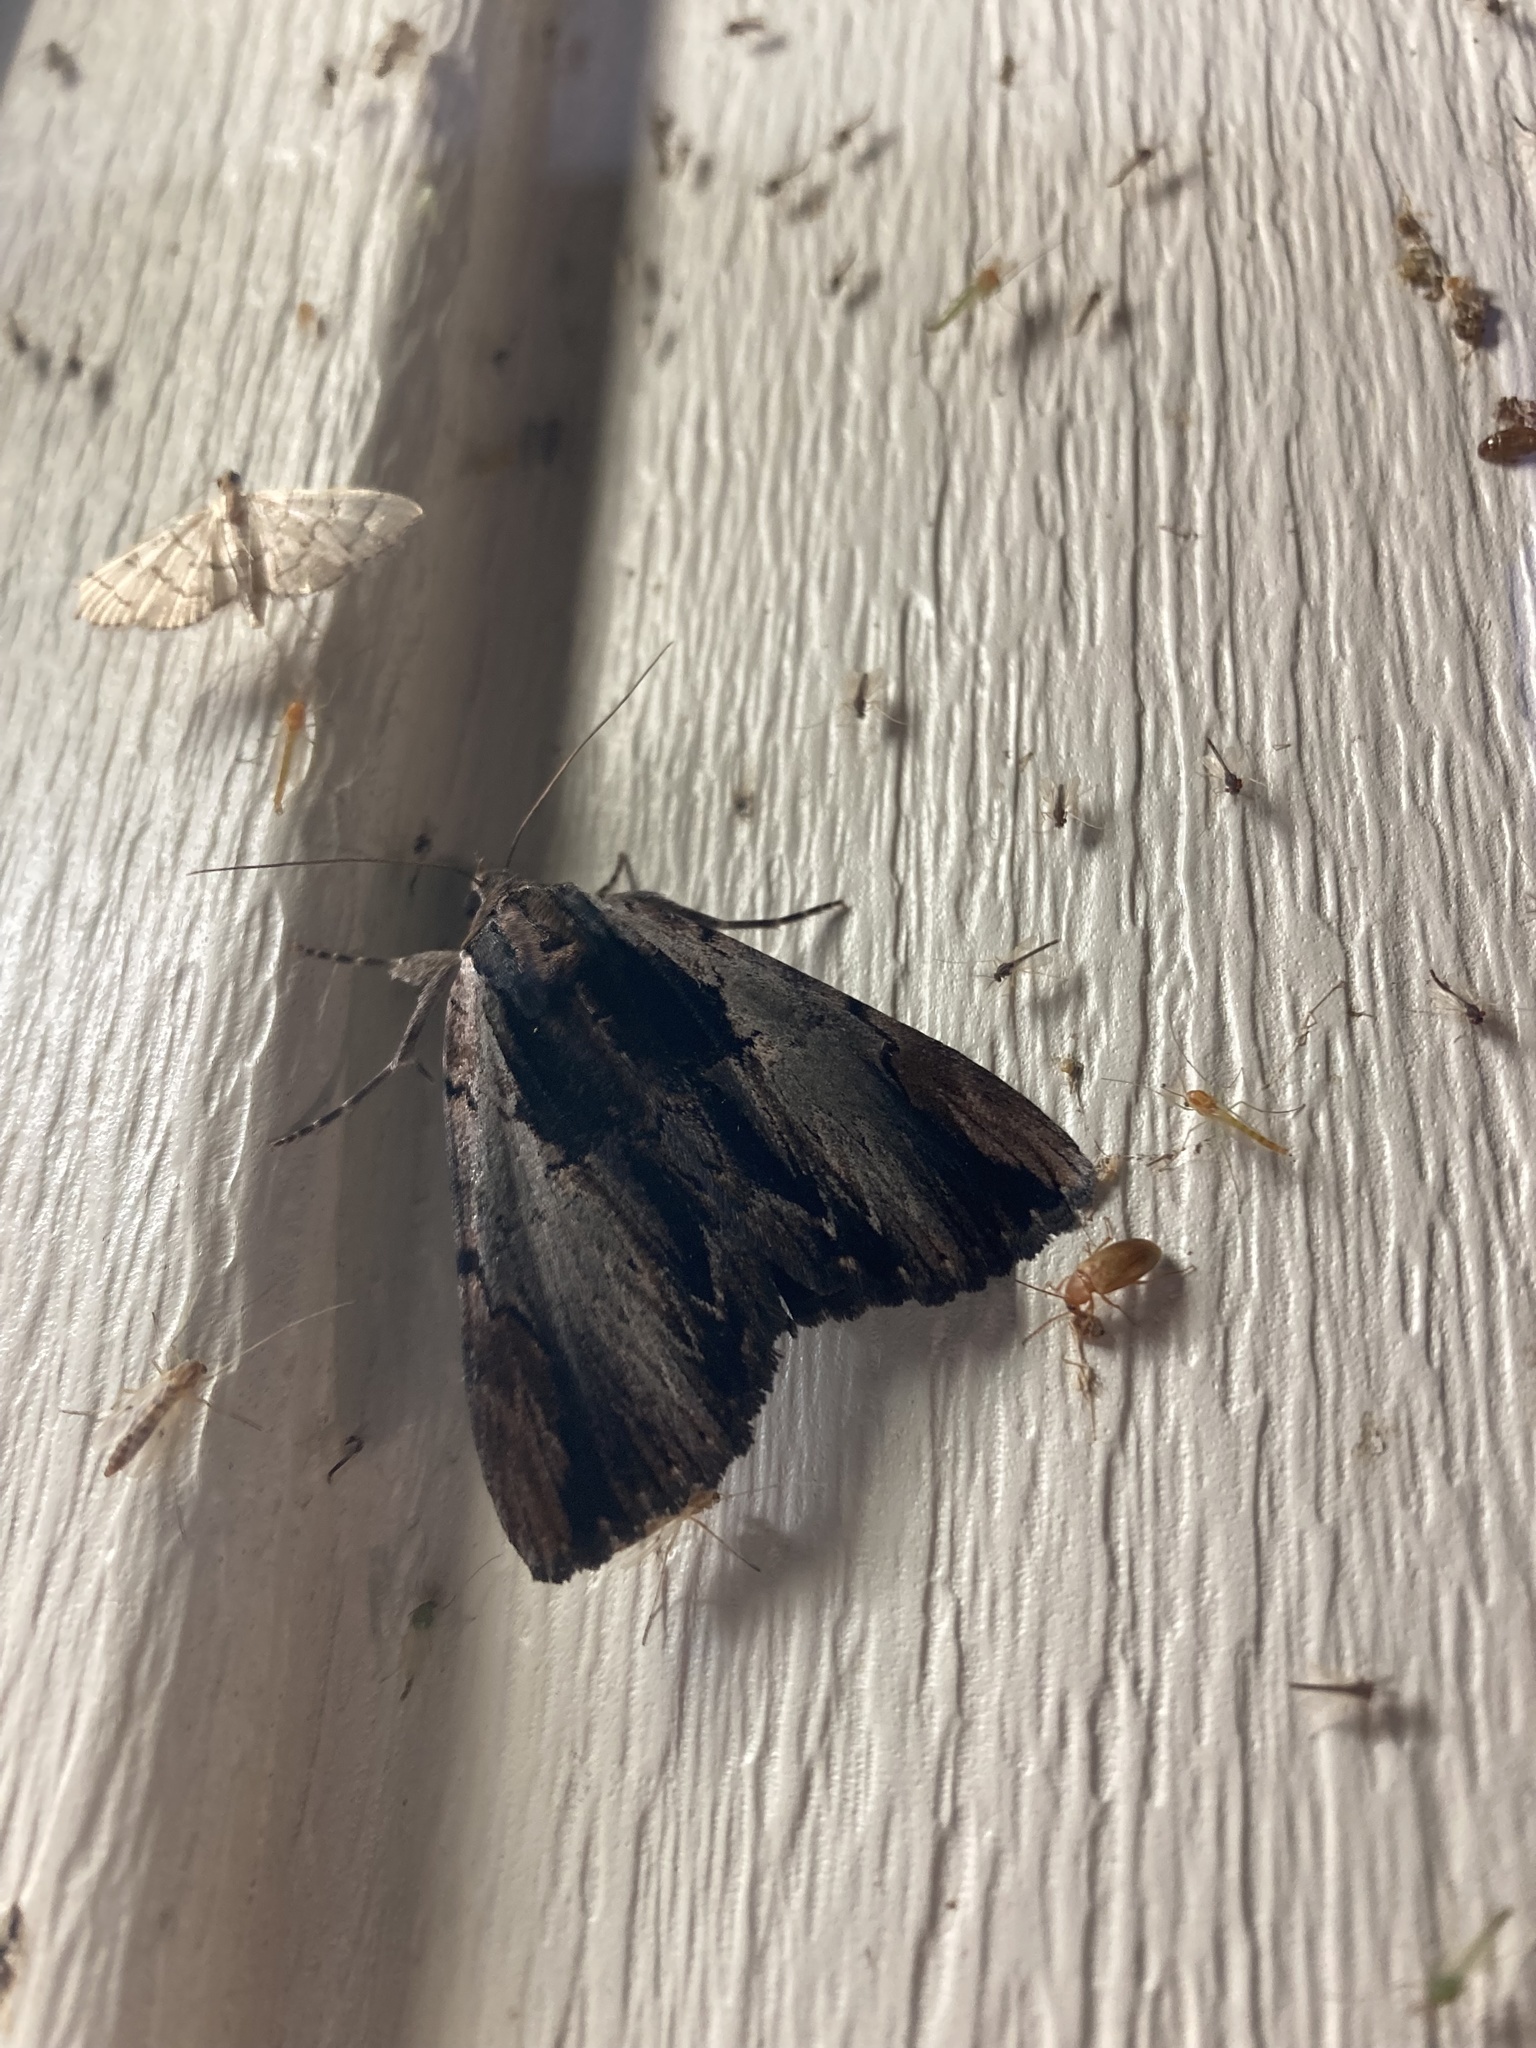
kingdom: Animalia
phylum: Arthropoda
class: Insecta
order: Lepidoptera
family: Erebidae
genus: Catocala
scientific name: Catocala ultronia
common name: Ultronia underwing
